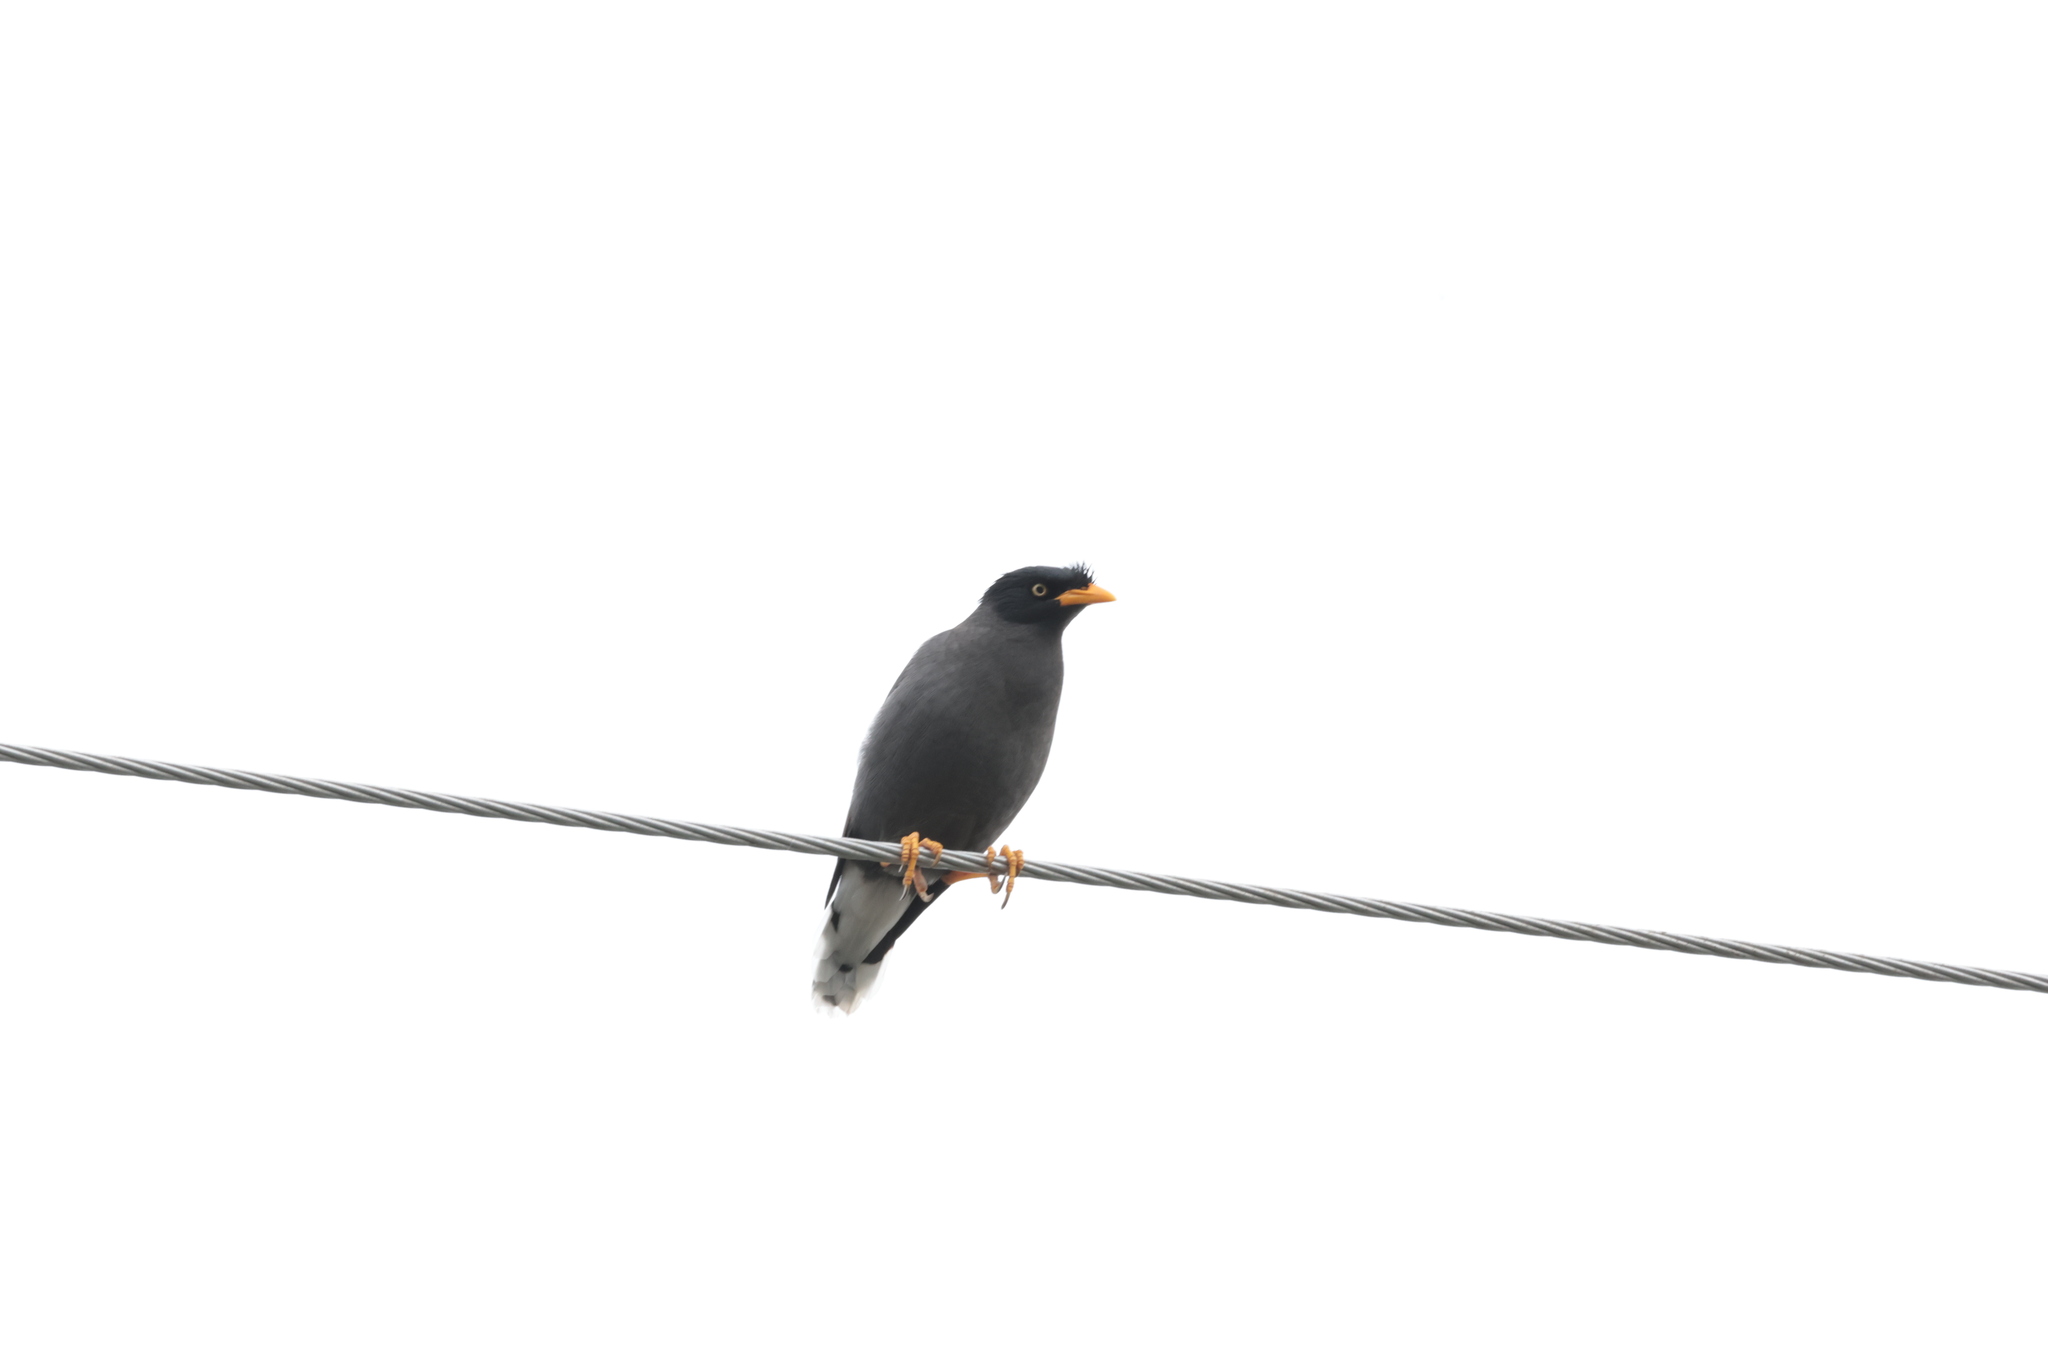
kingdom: Animalia
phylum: Chordata
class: Aves
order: Passeriformes
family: Sturnidae
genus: Acridotheres
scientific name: Acridotheres javanicus
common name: Javan myna
